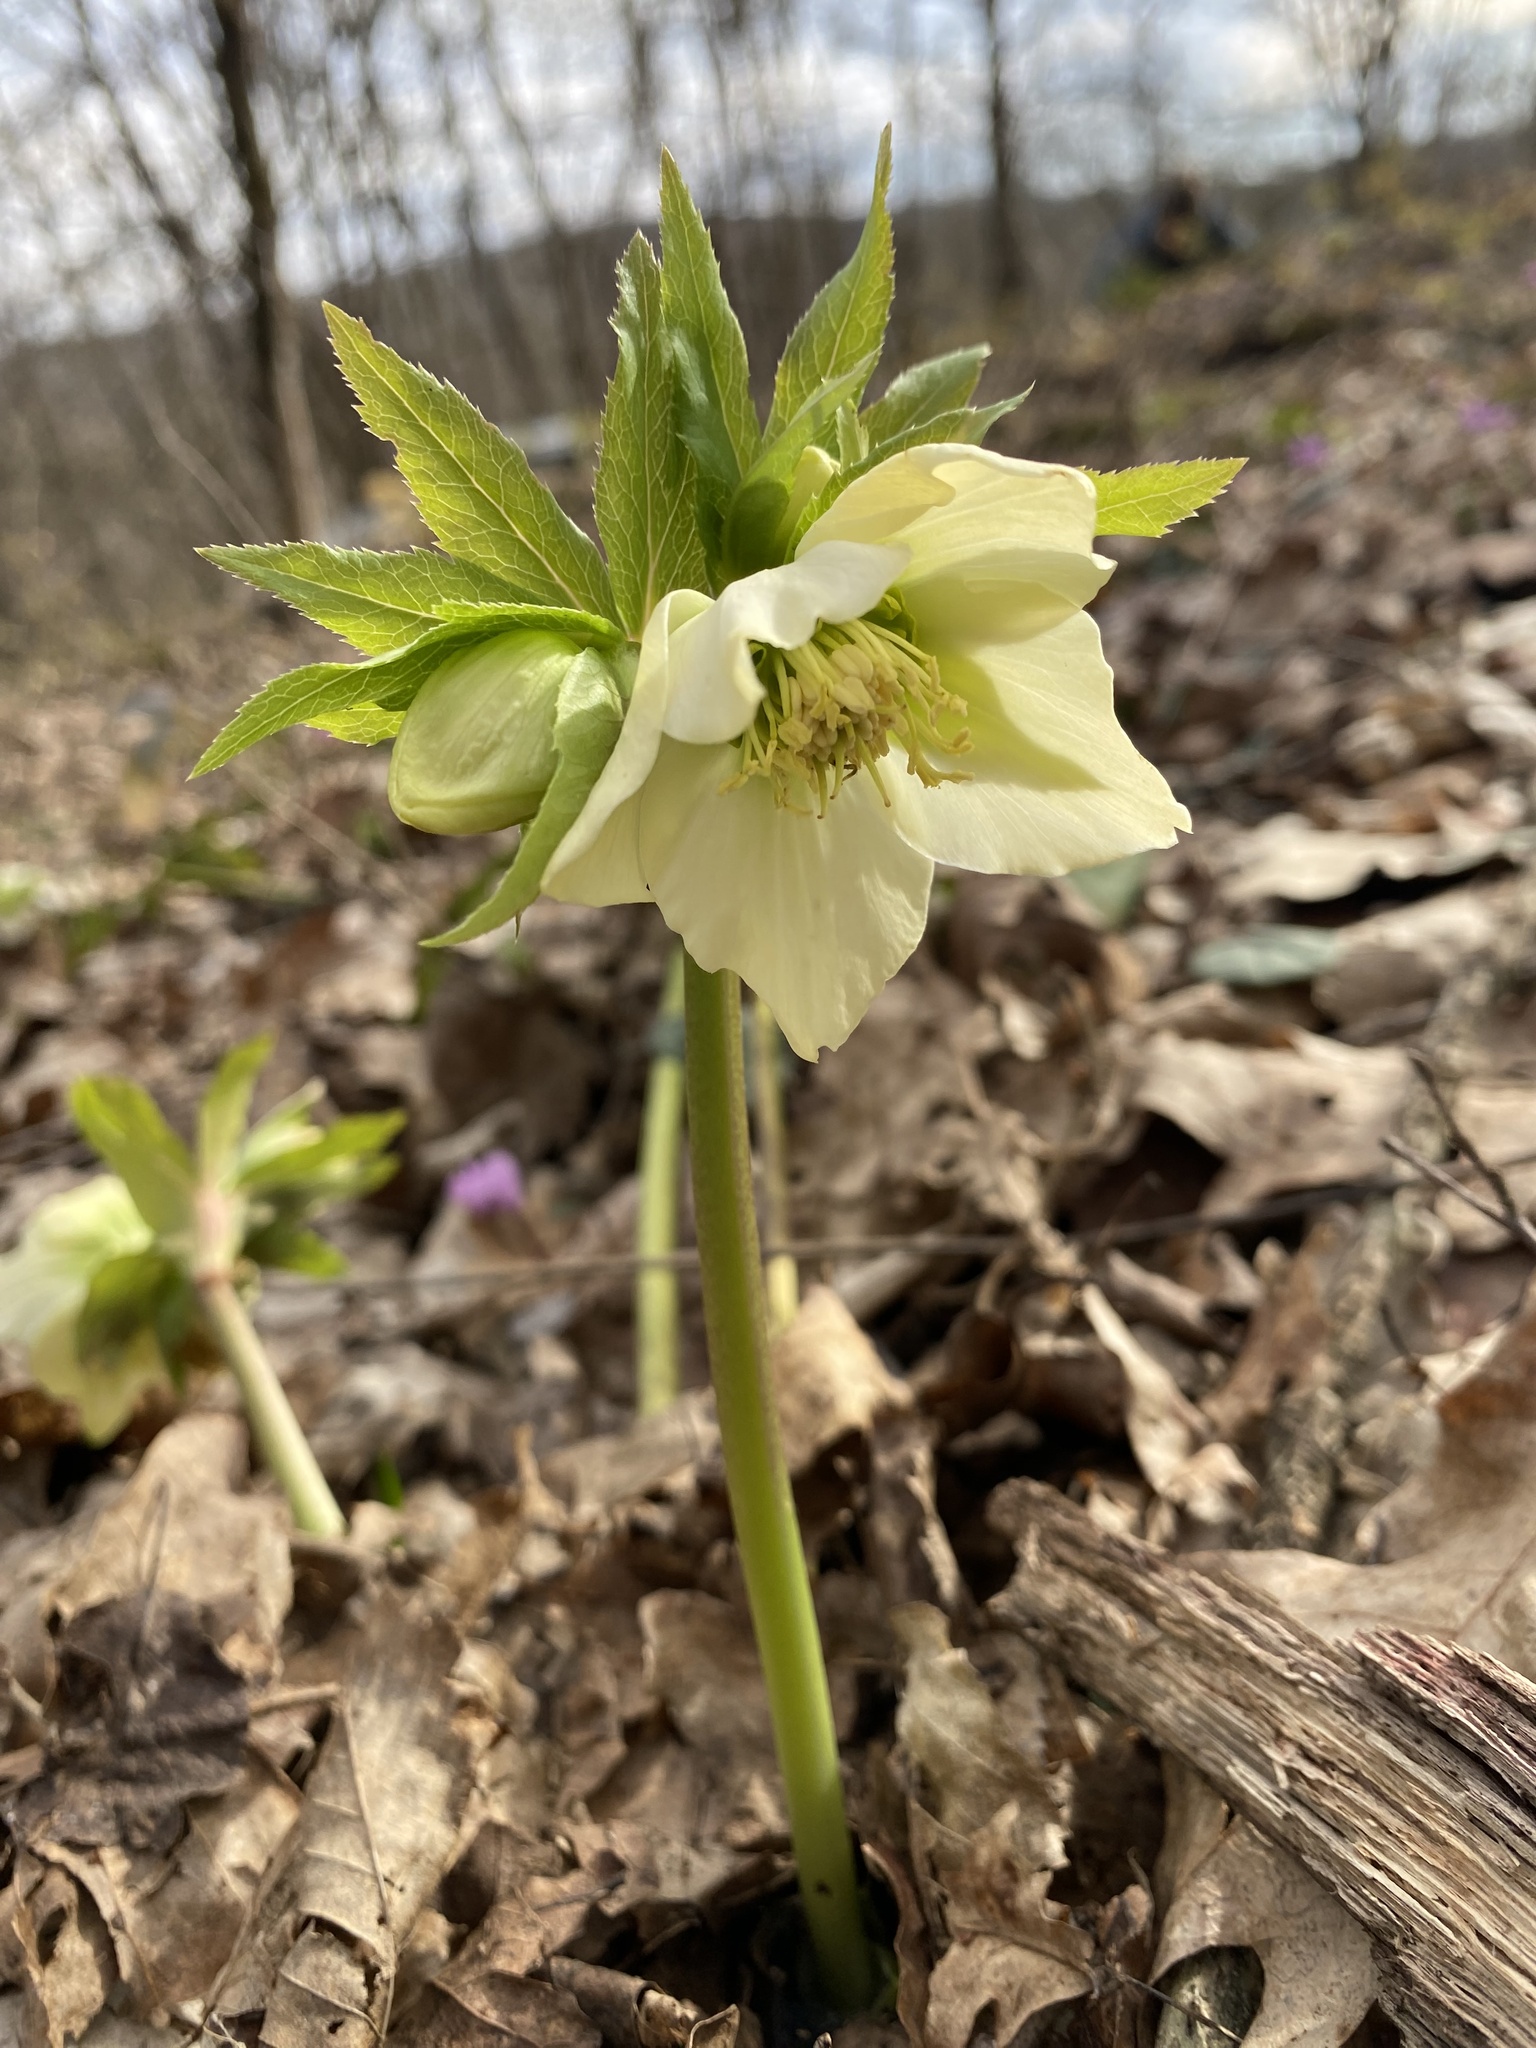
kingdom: Plantae
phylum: Tracheophyta
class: Magnoliopsida
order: Ranunculales
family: Ranunculaceae
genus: Helleborus
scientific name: Helleborus orientalis
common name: Lenten-rose
